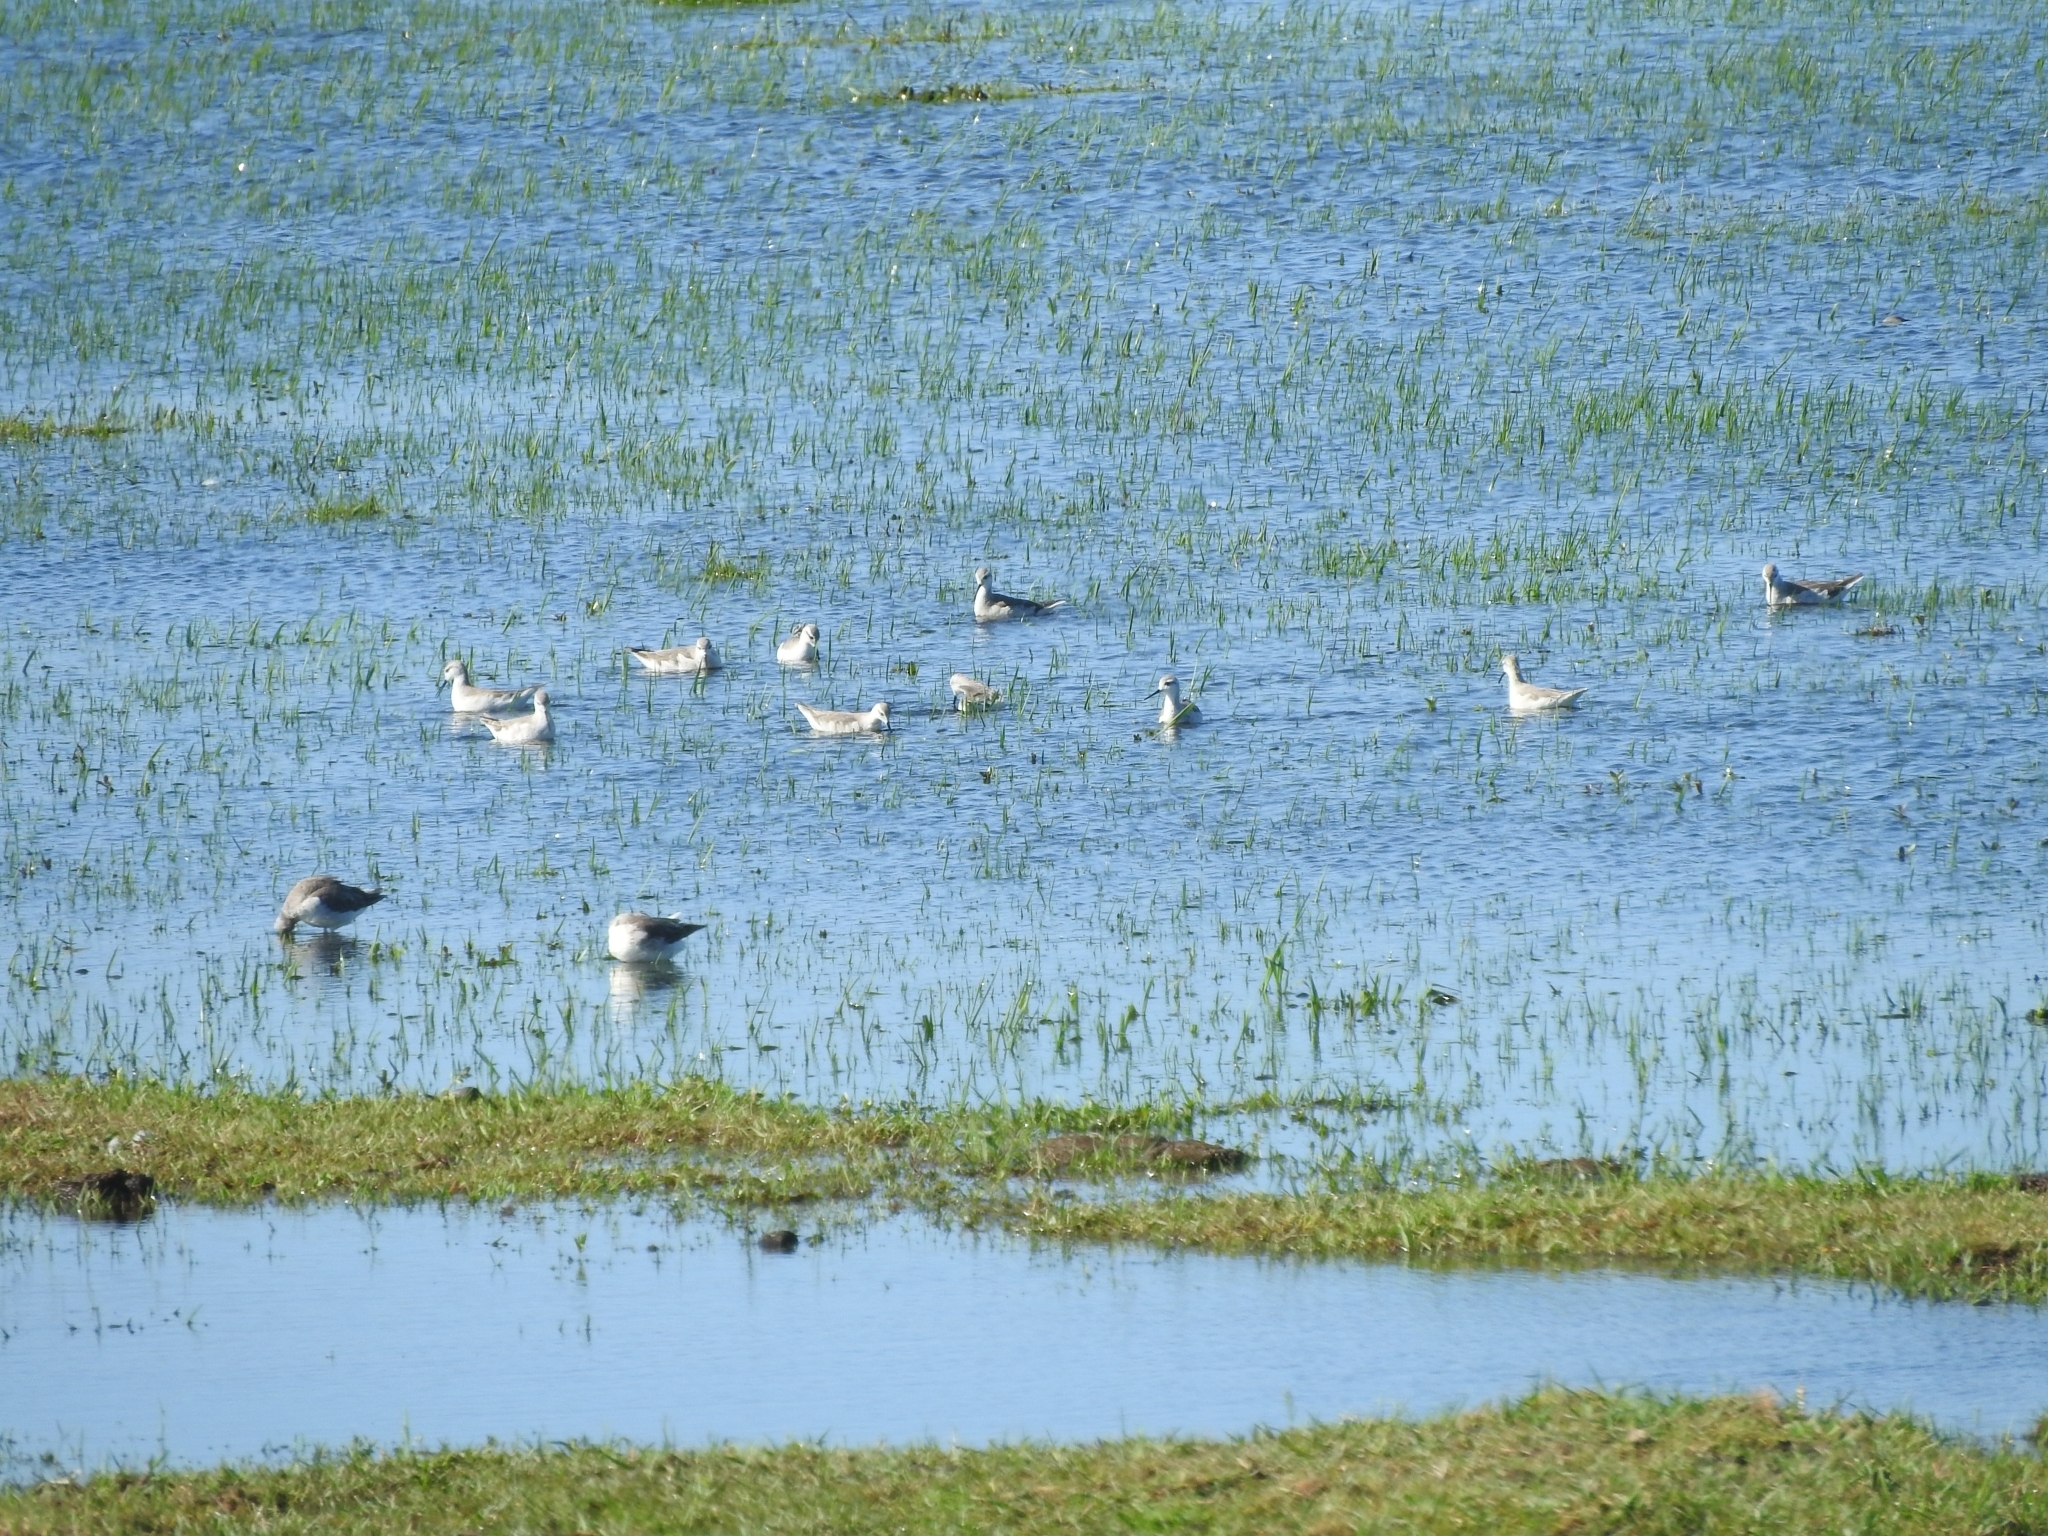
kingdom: Animalia
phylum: Chordata
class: Aves
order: Charadriiformes
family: Scolopacidae
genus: Phalaropus
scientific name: Phalaropus tricolor
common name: Wilson's phalarope
